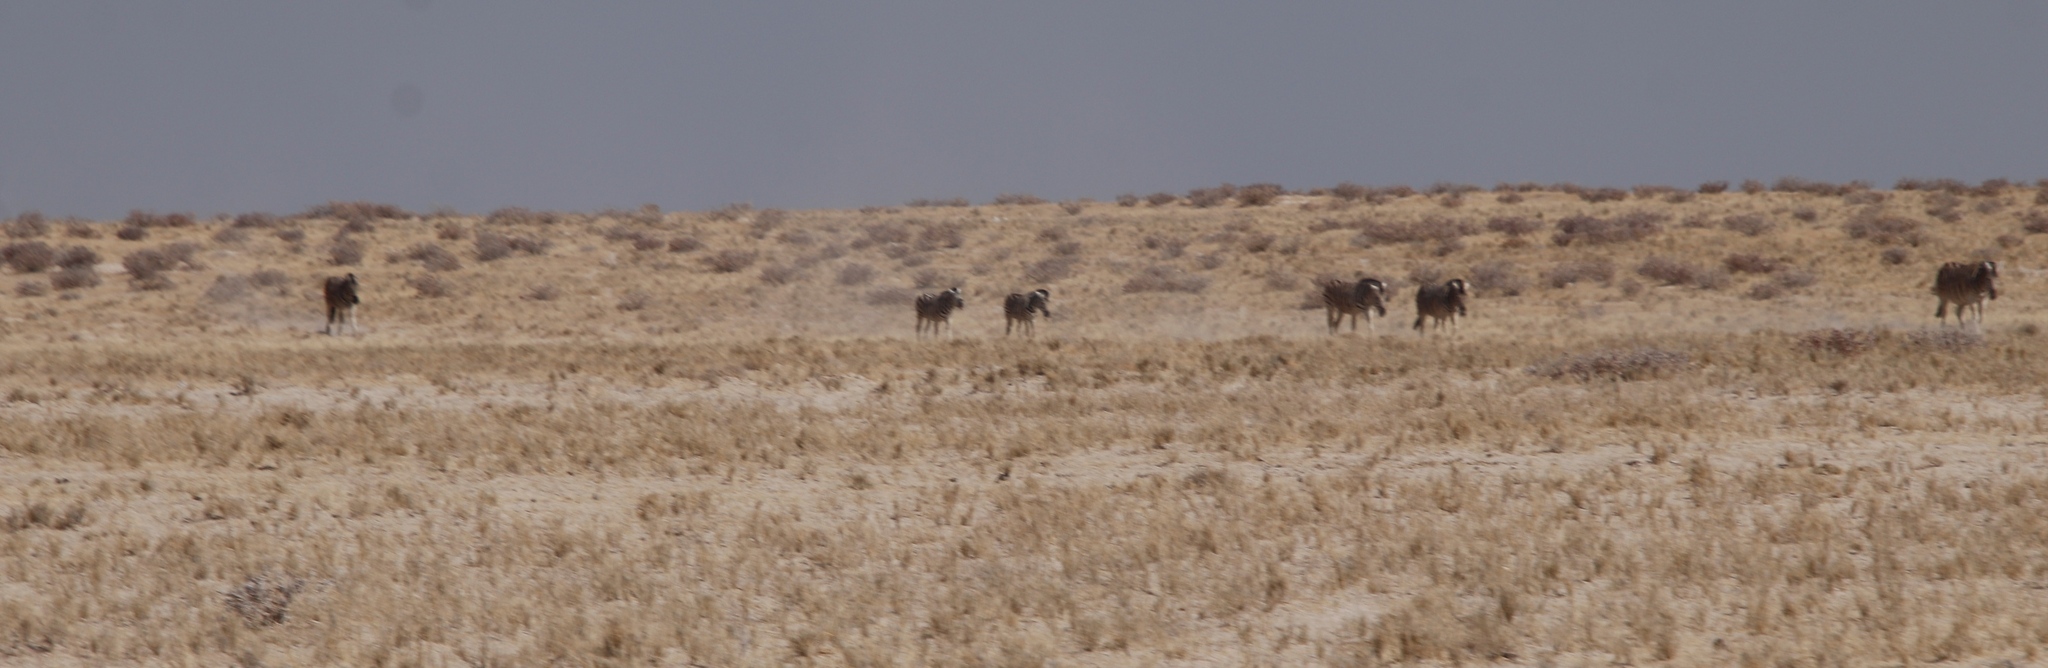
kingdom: Animalia
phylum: Chordata
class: Mammalia
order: Perissodactyla
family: Equidae
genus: Equus
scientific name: Equus quagga
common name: Plains zebra
